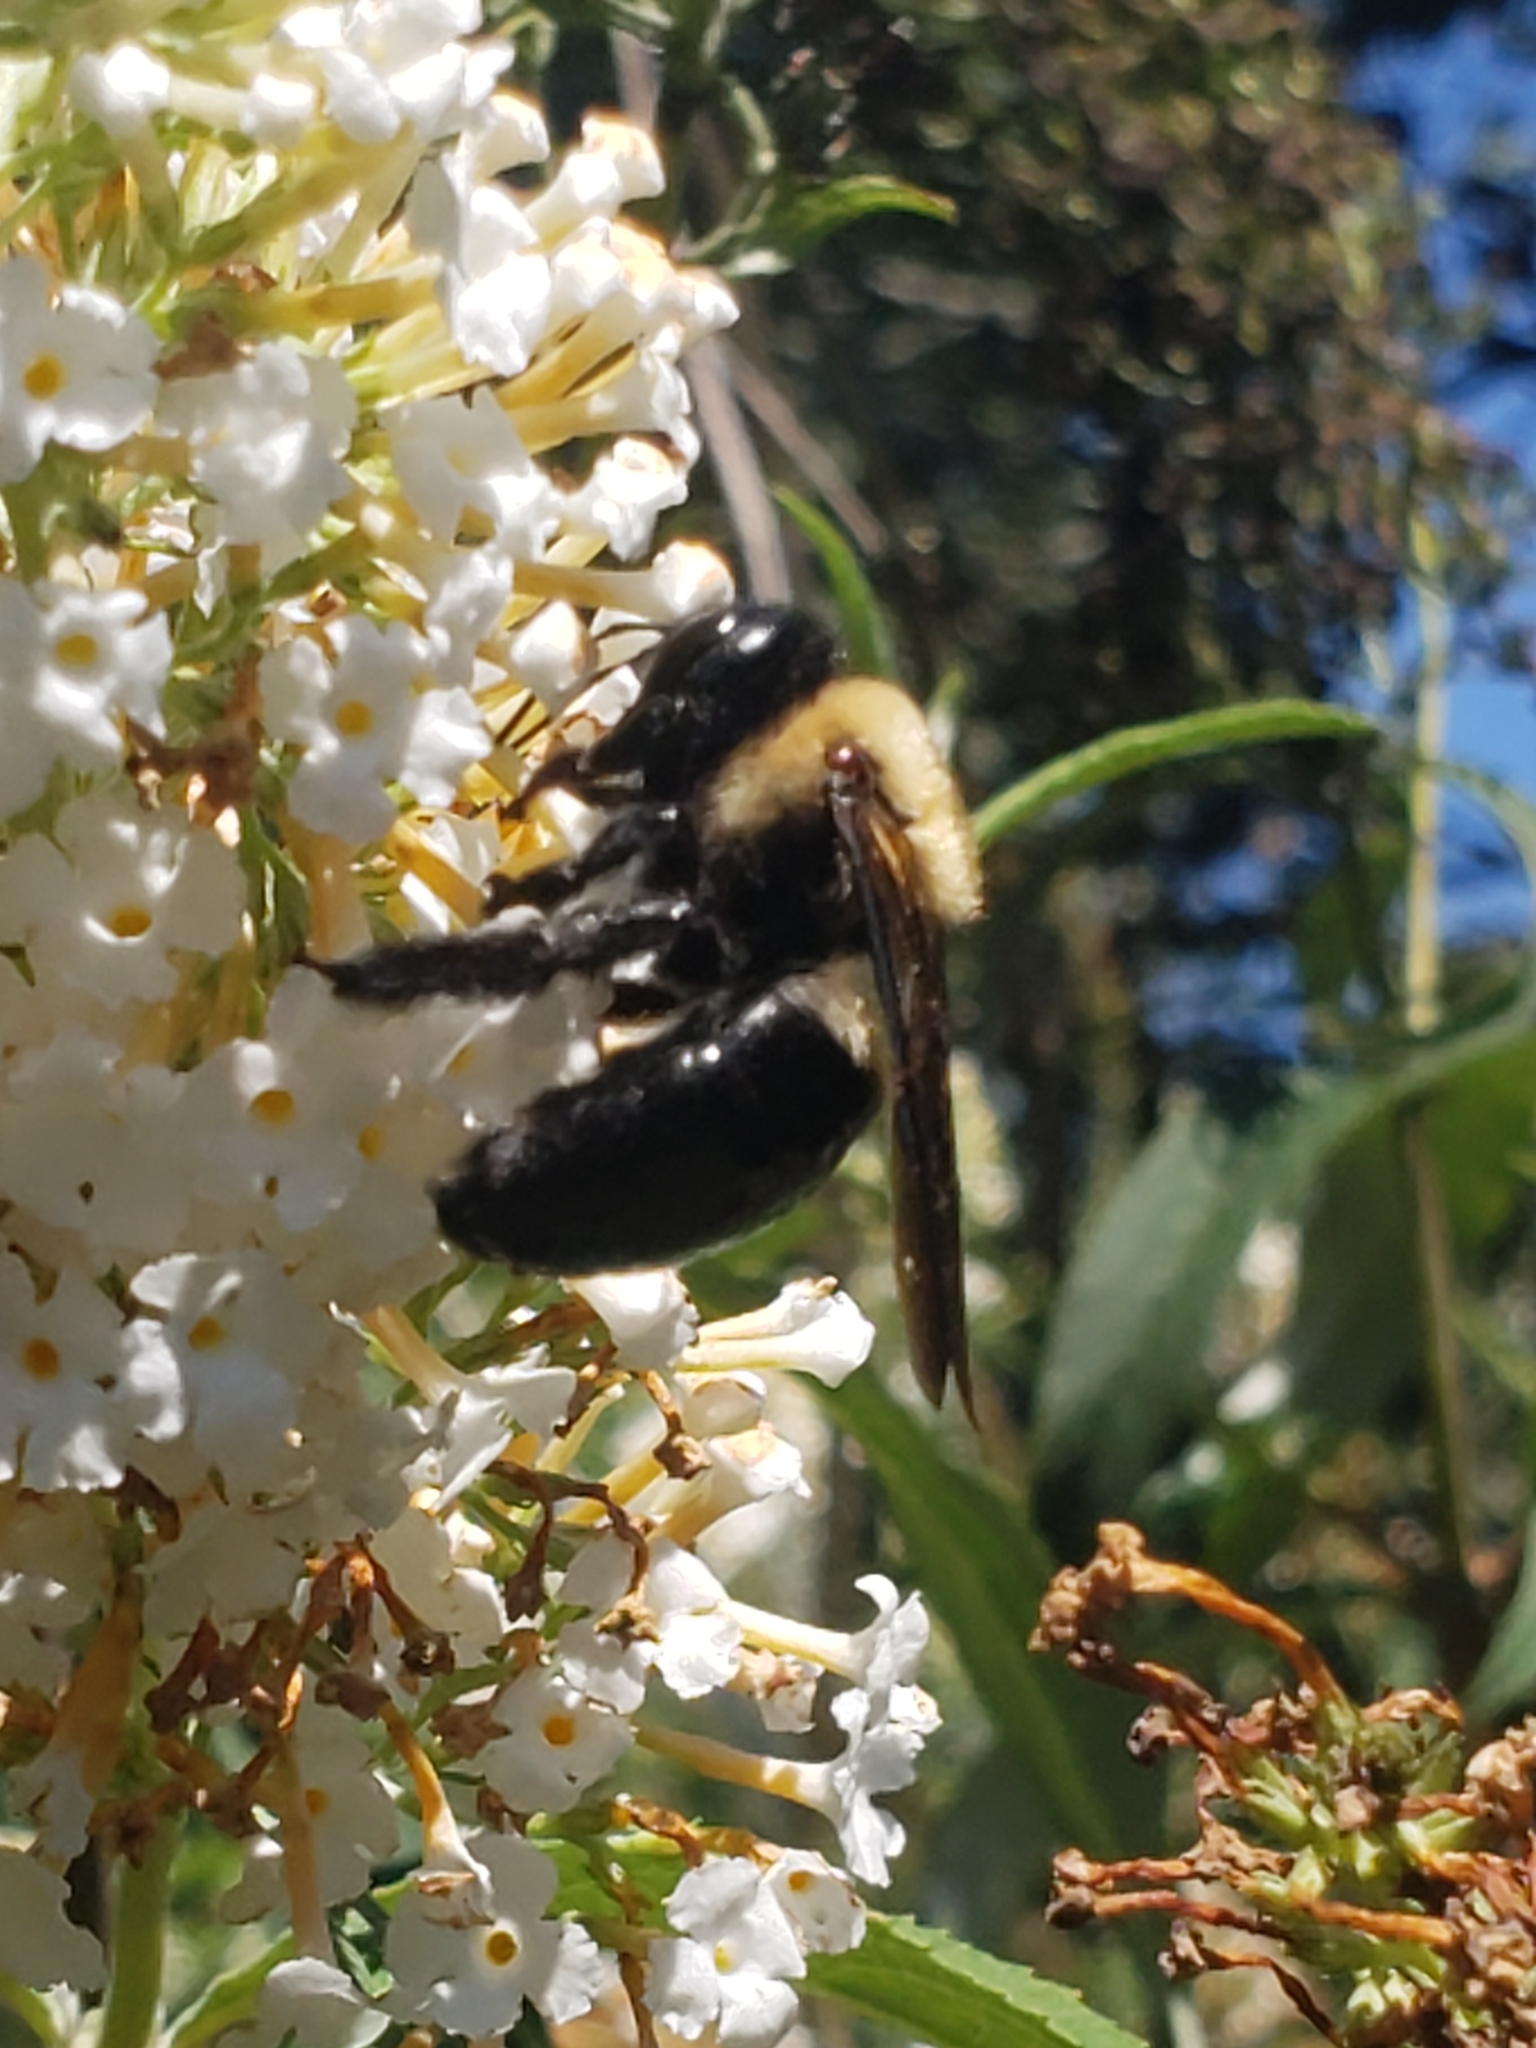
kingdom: Animalia
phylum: Arthropoda
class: Insecta
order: Hymenoptera
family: Apidae
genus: Xylocopa
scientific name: Xylocopa virginica
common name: Carpenter bee
